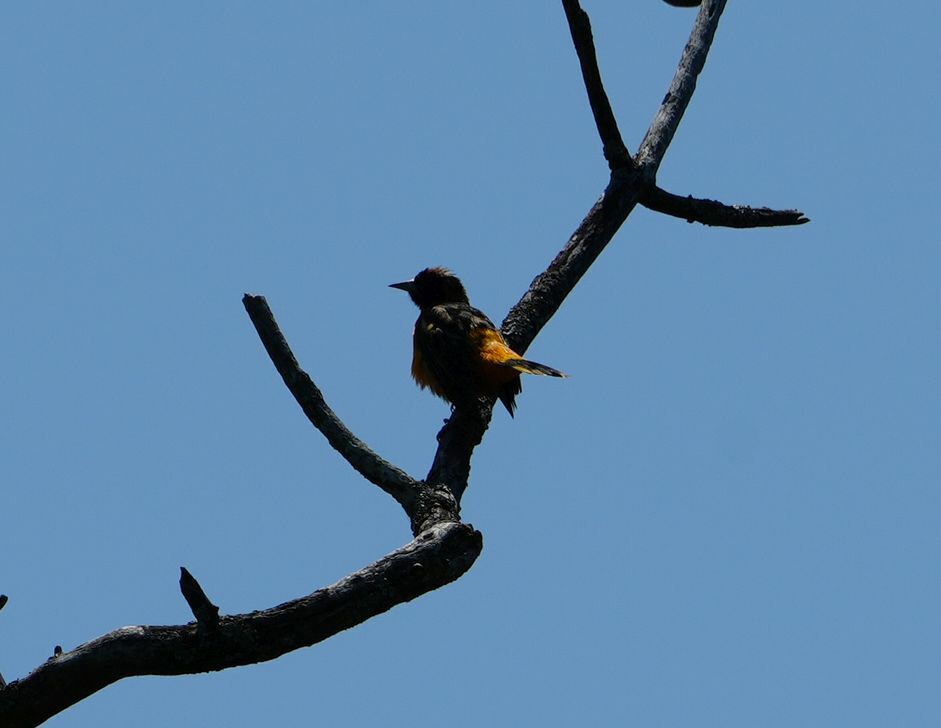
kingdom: Animalia
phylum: Chordata
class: Aves
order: Passeriformes
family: Icteridae
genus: Icterus
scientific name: Icterus galbula
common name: Baltimore oriole
